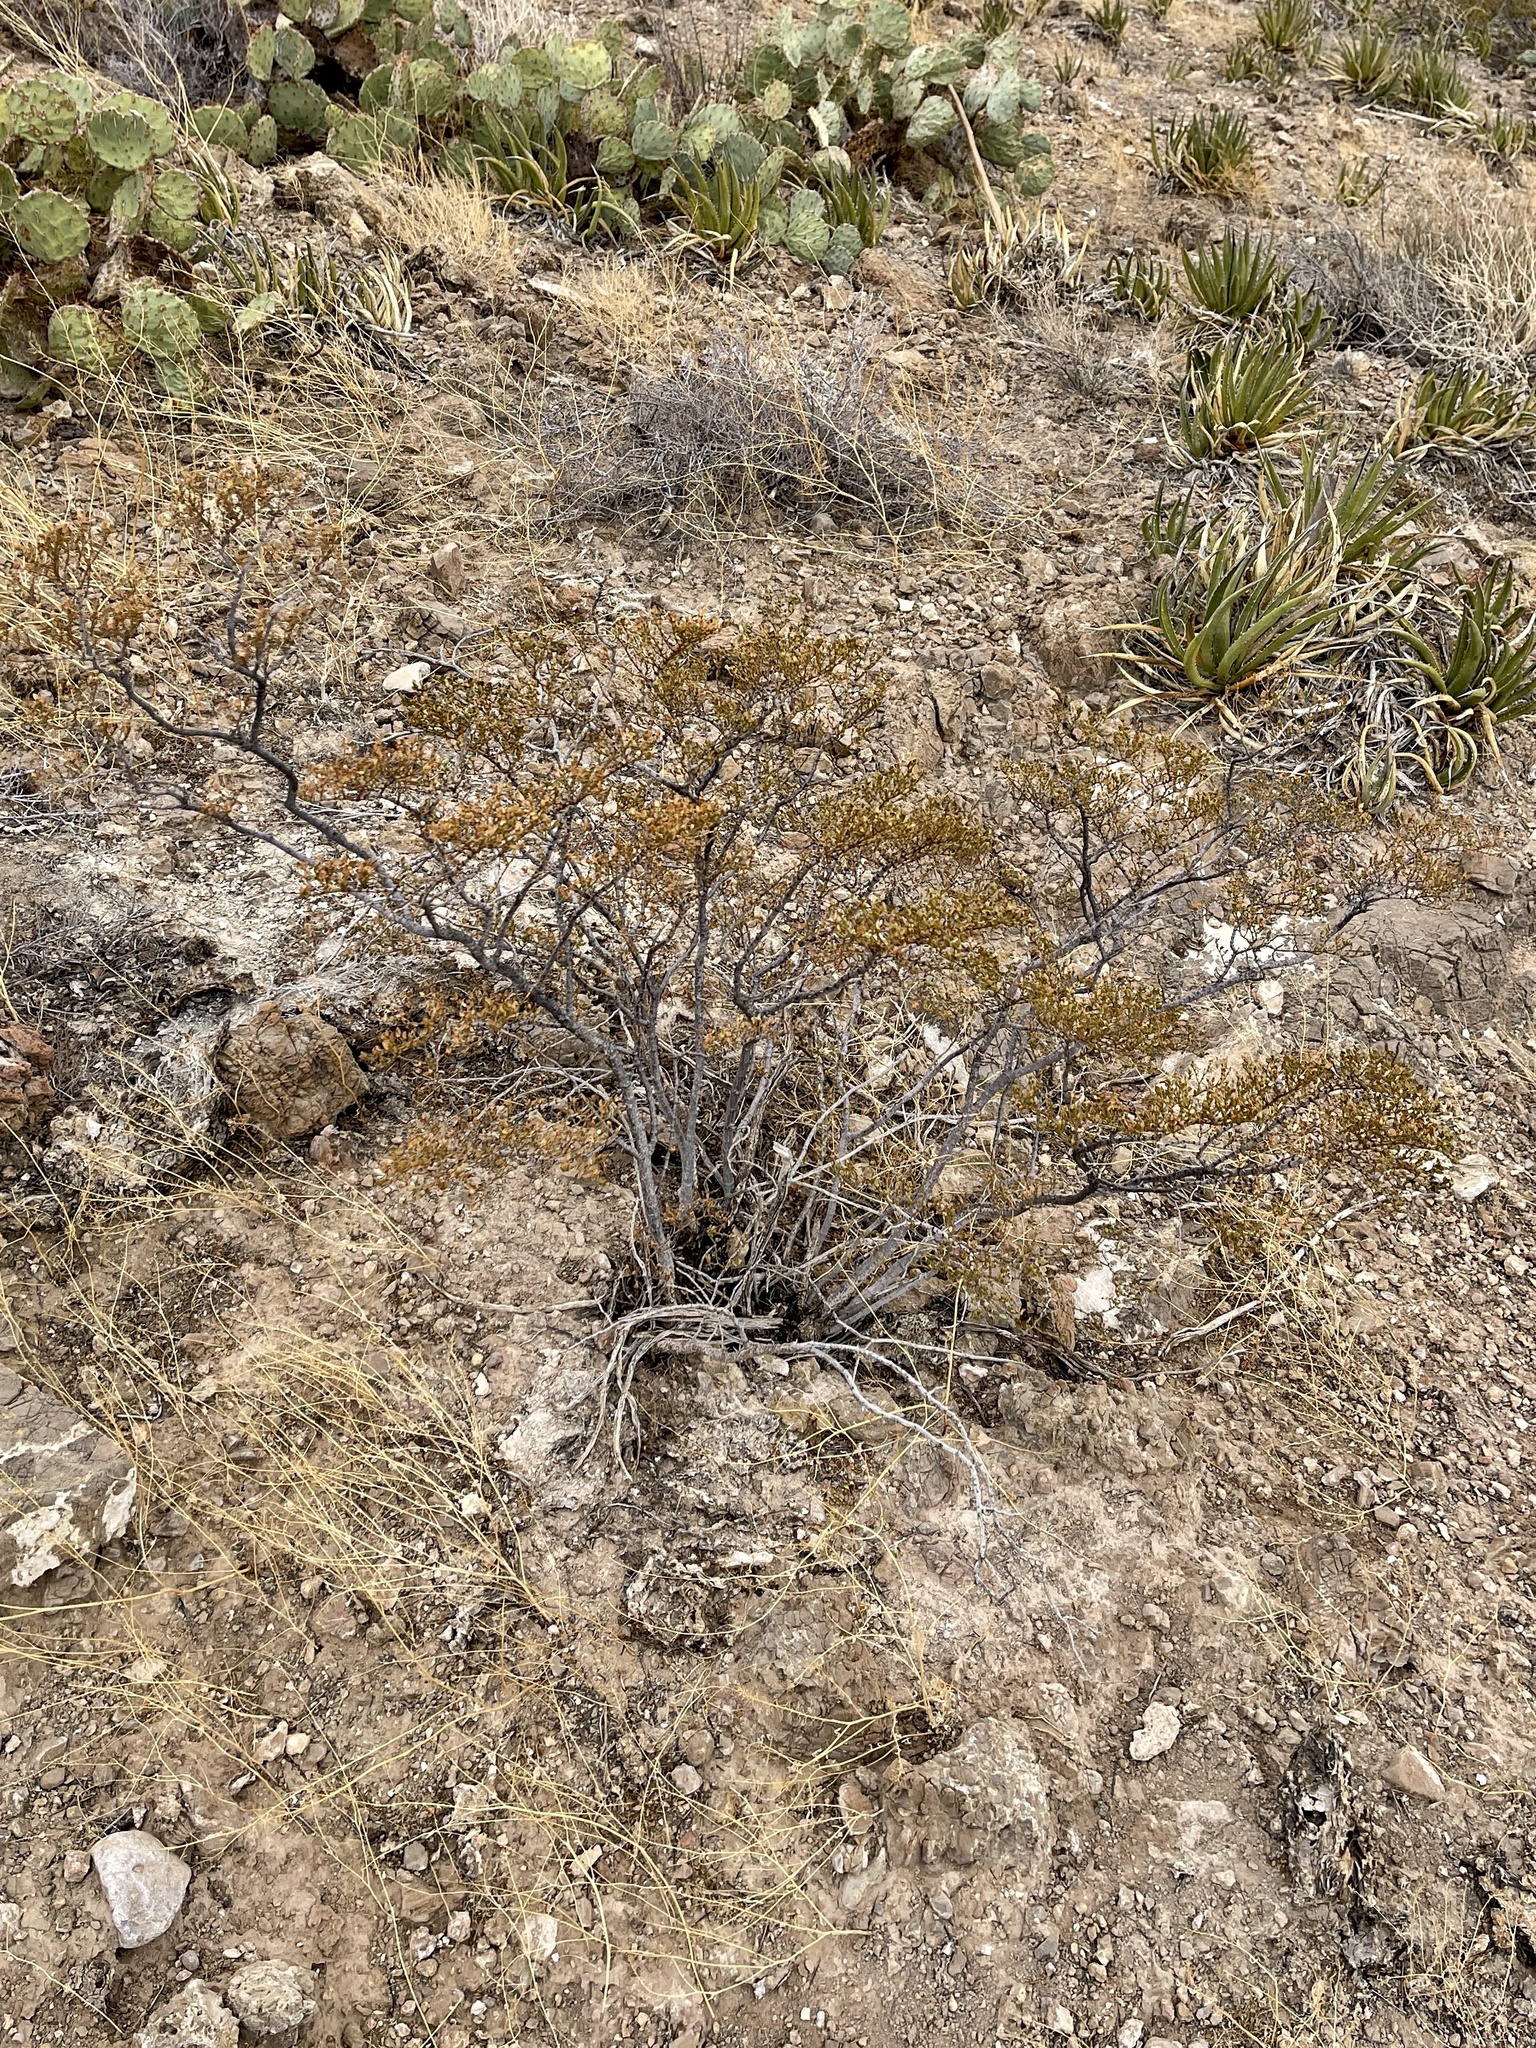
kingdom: Plantae
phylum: Tracheophyta
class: Magnoliopsida
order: Zygophyllales
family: Zygophyllaceae
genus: Larrea
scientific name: Larrea tridentata
